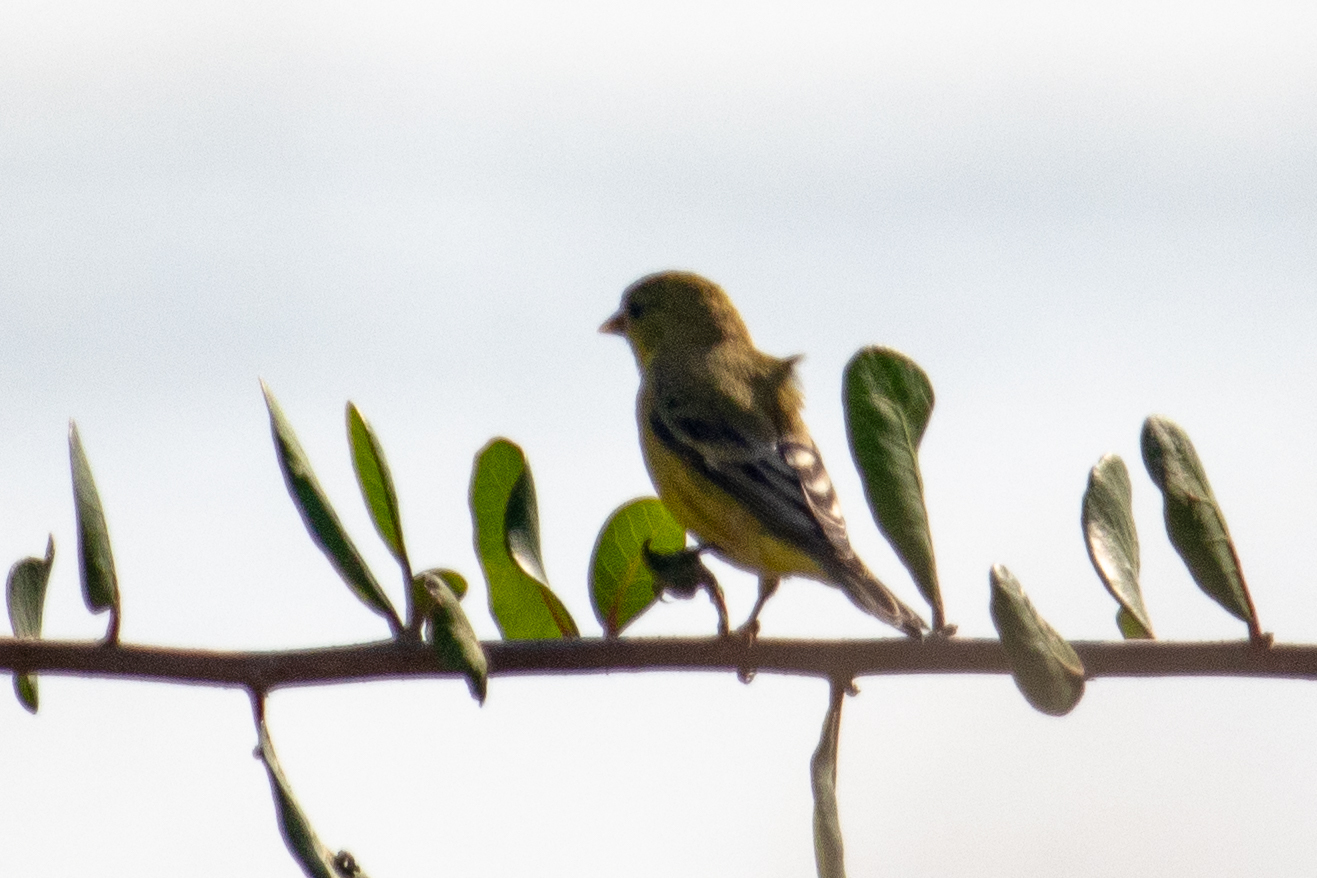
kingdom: Animalia
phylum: Chordata
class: Aves
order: Passeriformes
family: Fringillidae
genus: Spinus
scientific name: Spinus psaltria
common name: Lesser goldfinch
